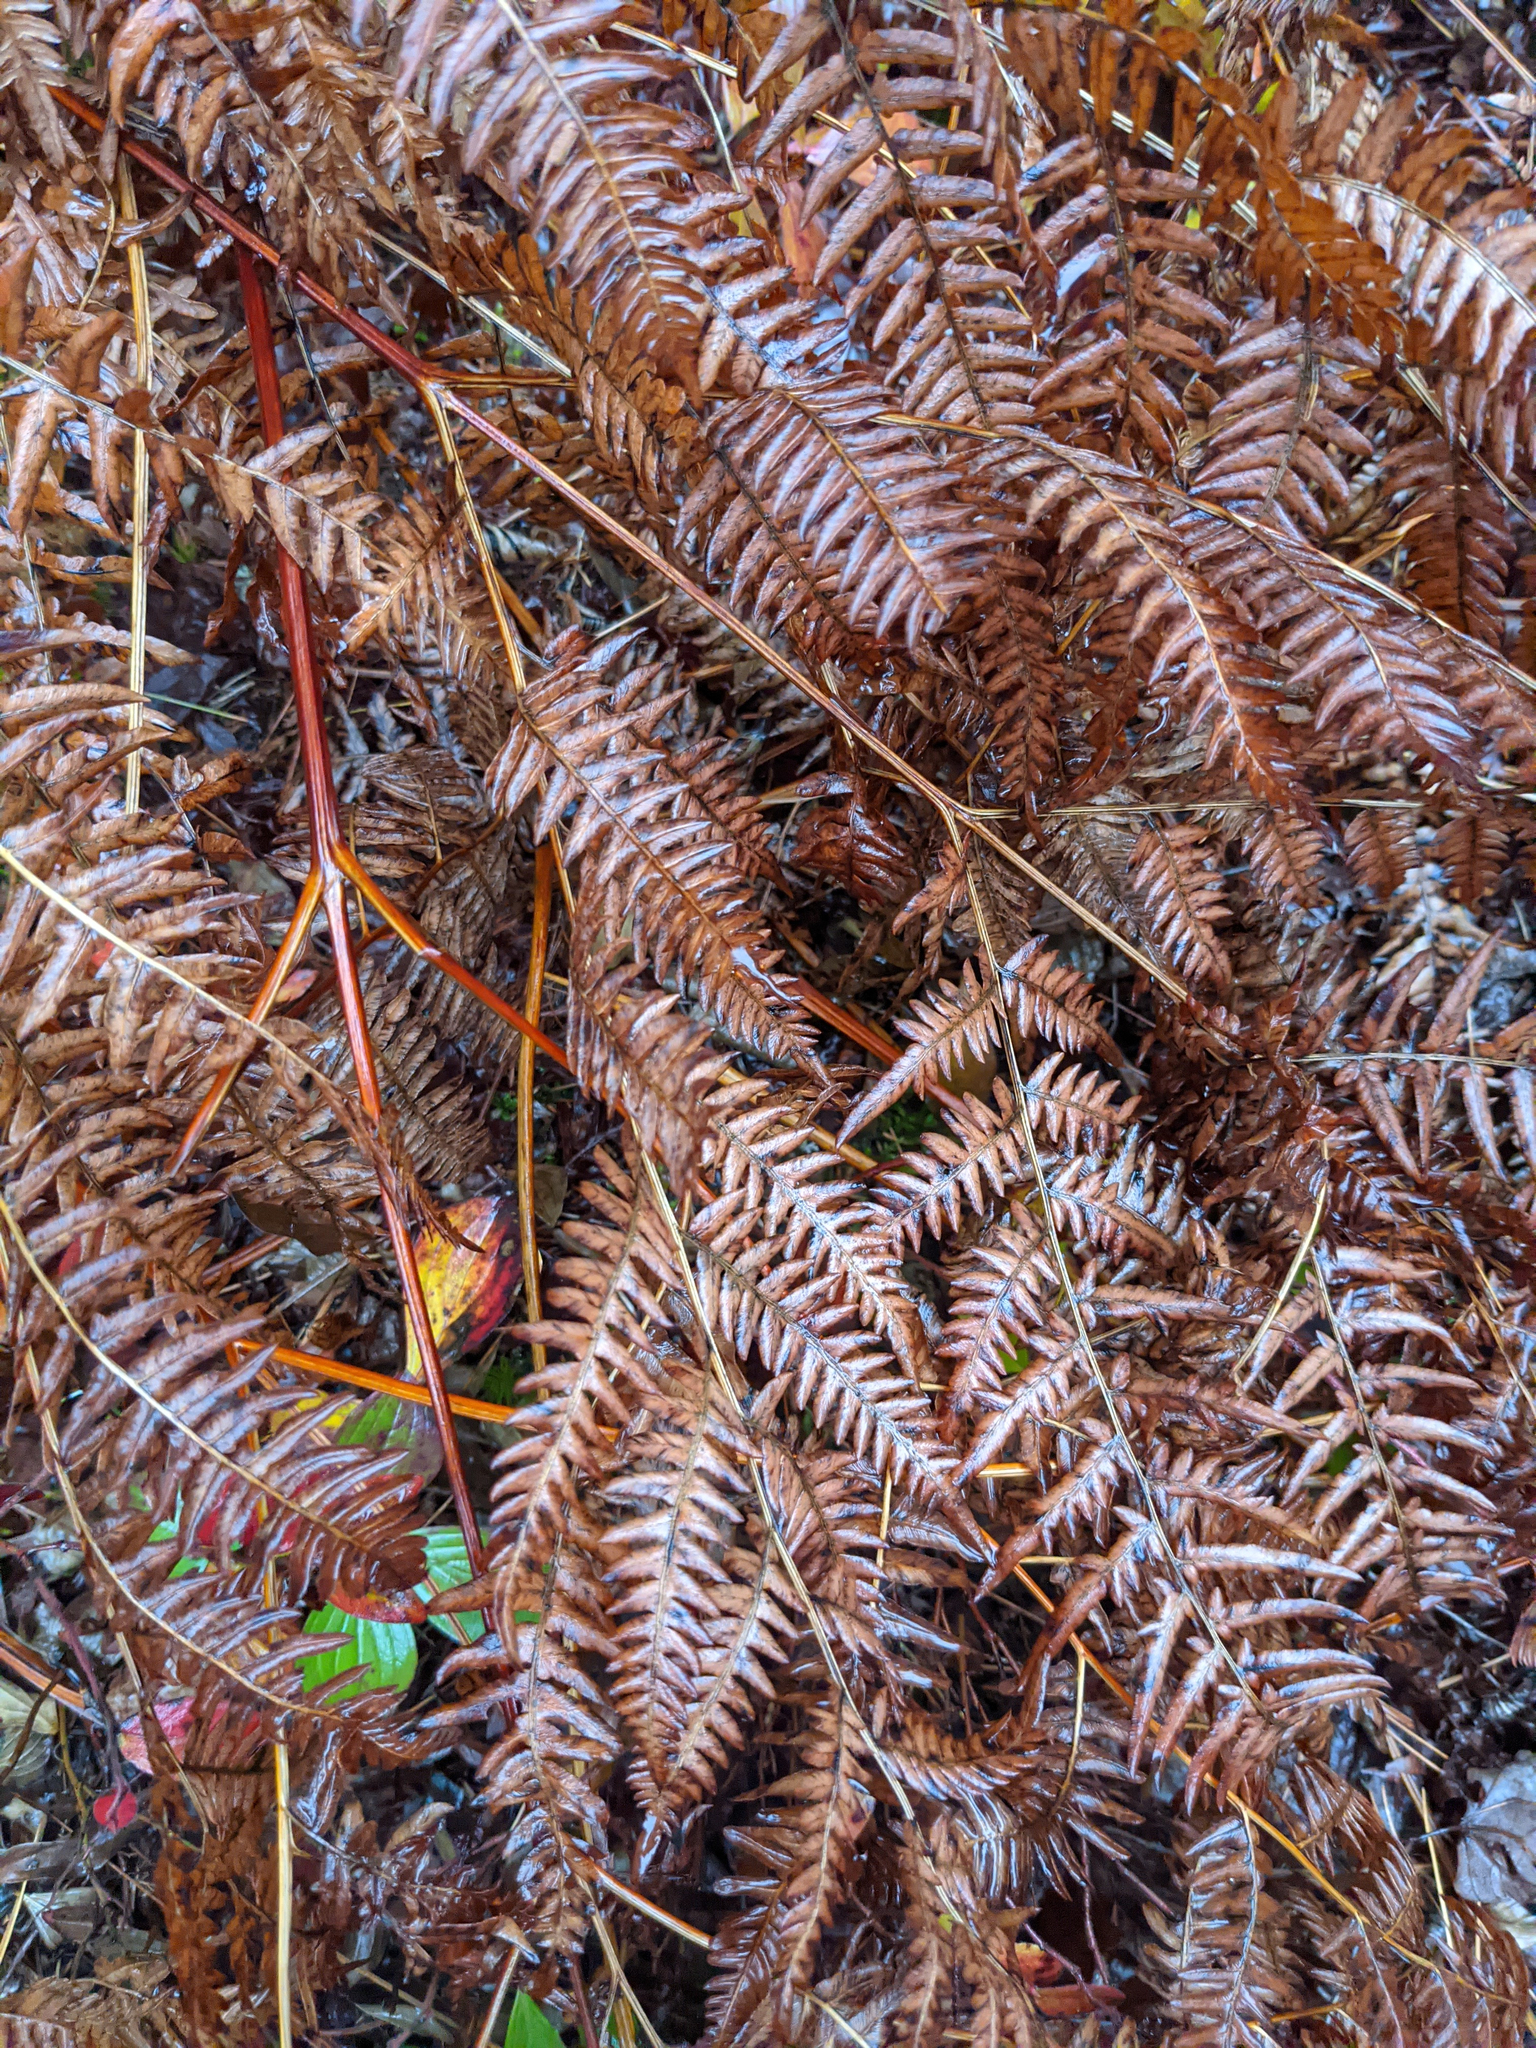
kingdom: Plantae
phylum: Tracheophyta
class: Polypodiopsida
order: Polypodiales
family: Dennstaedtiaceae
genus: Pteridium
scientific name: Pteridium aquilinum
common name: Bracken
